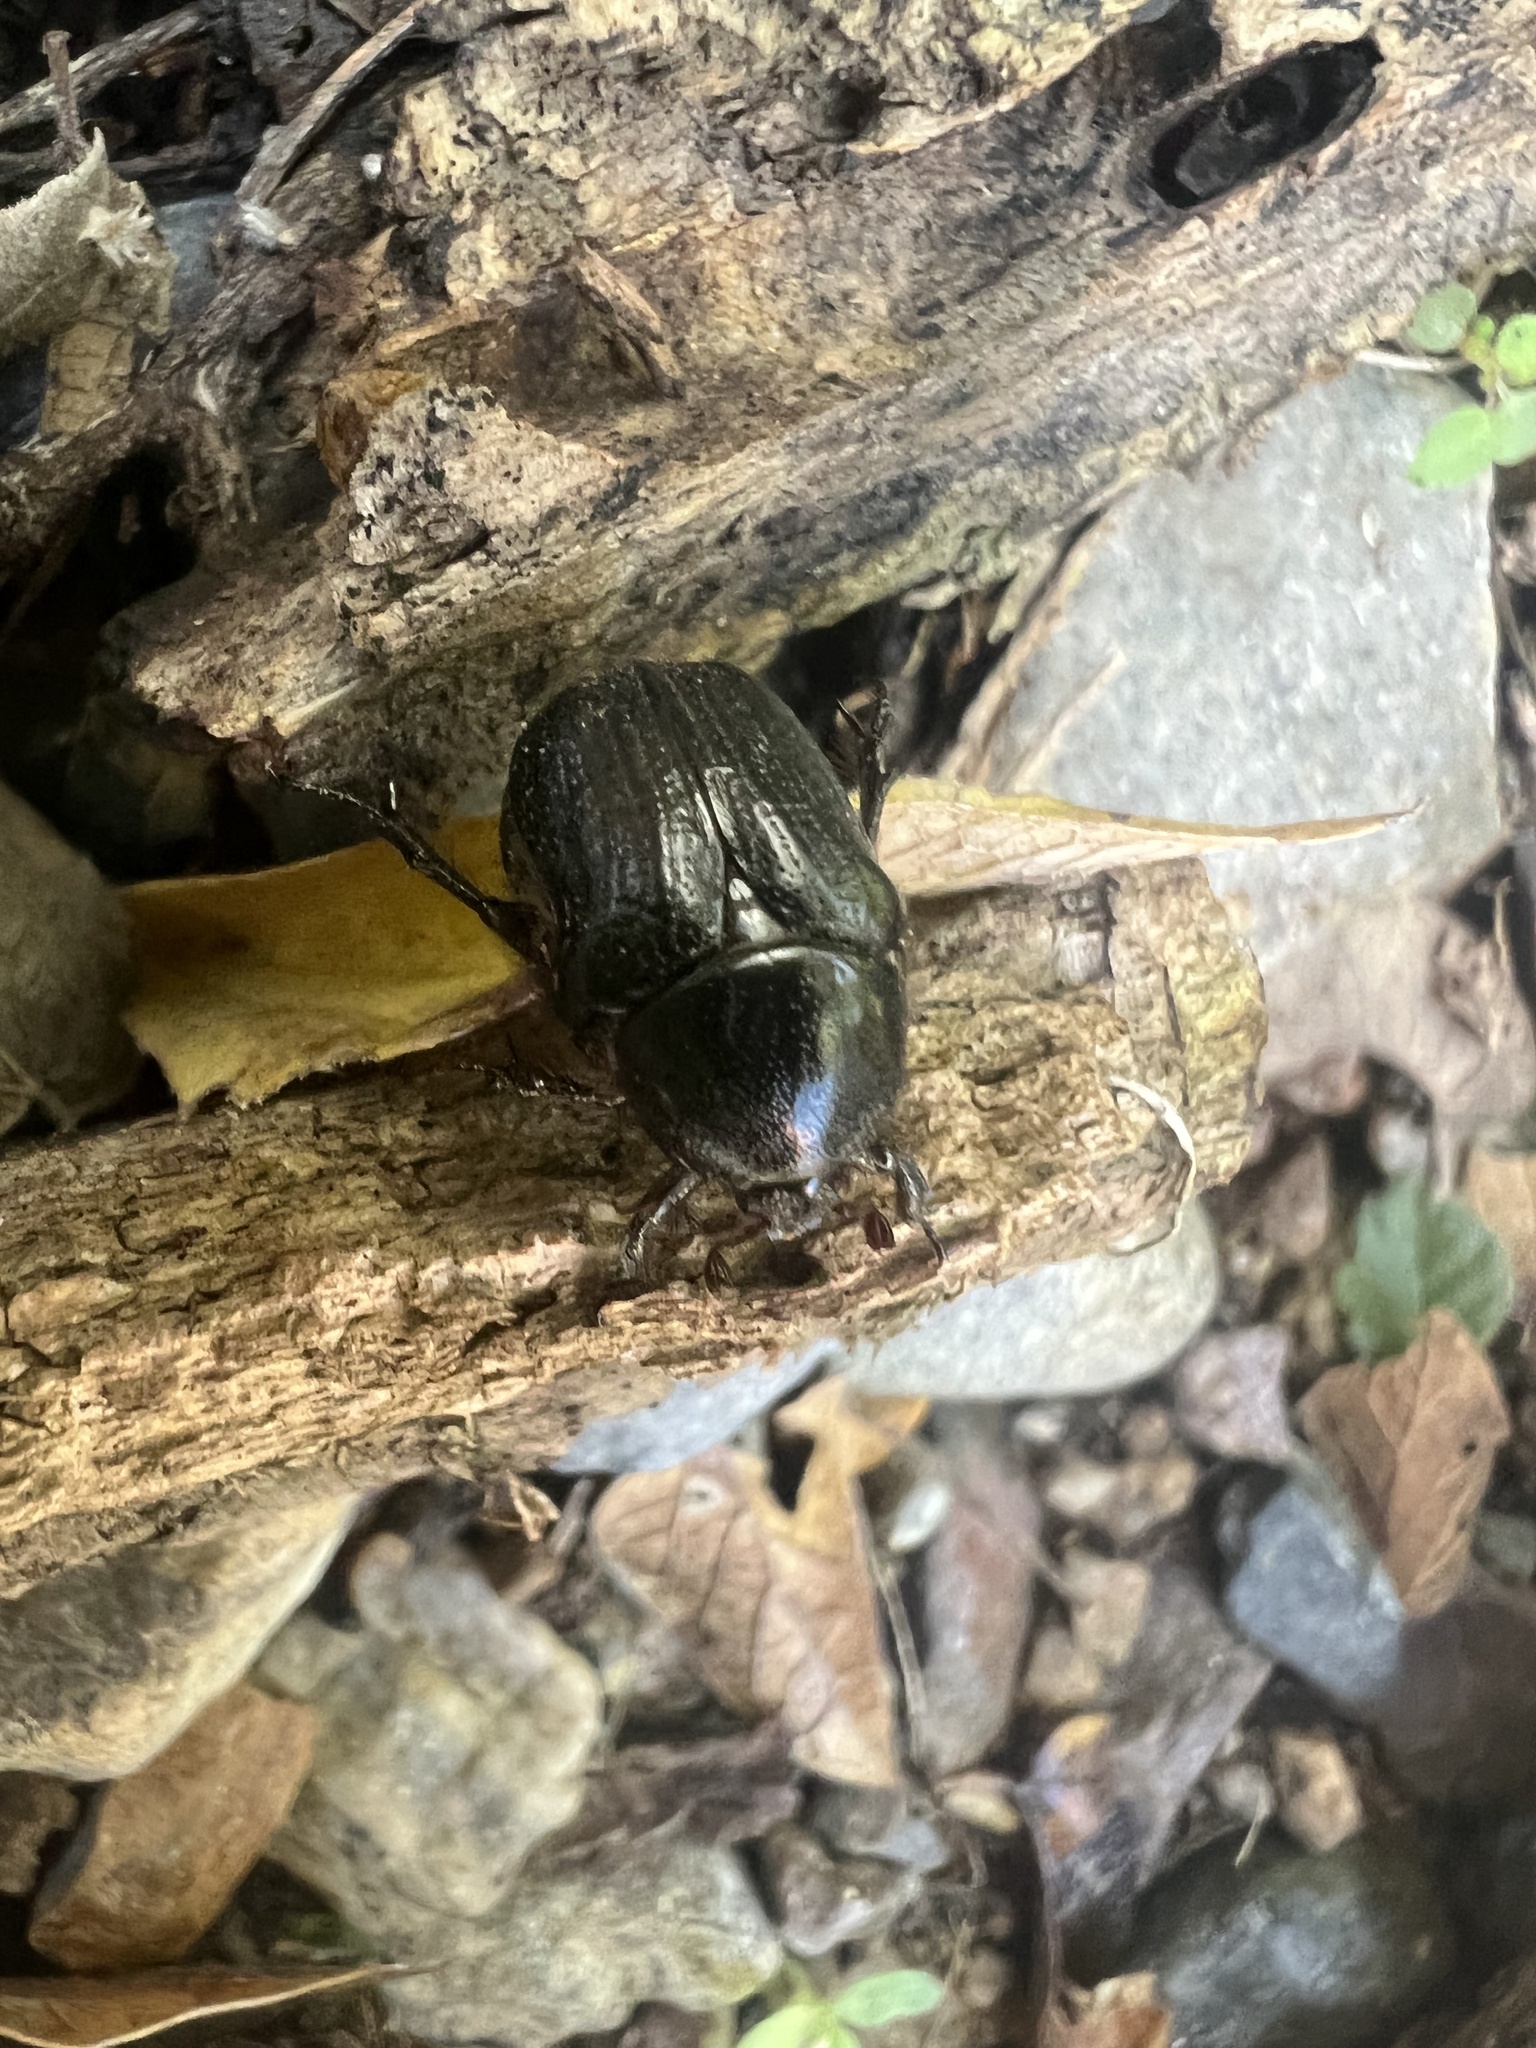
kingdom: Animalia
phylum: Arthropoda
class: Insecta
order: Coleoptera
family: Scarabaeidae
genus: Euphoria
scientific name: Euphoria verticalis
